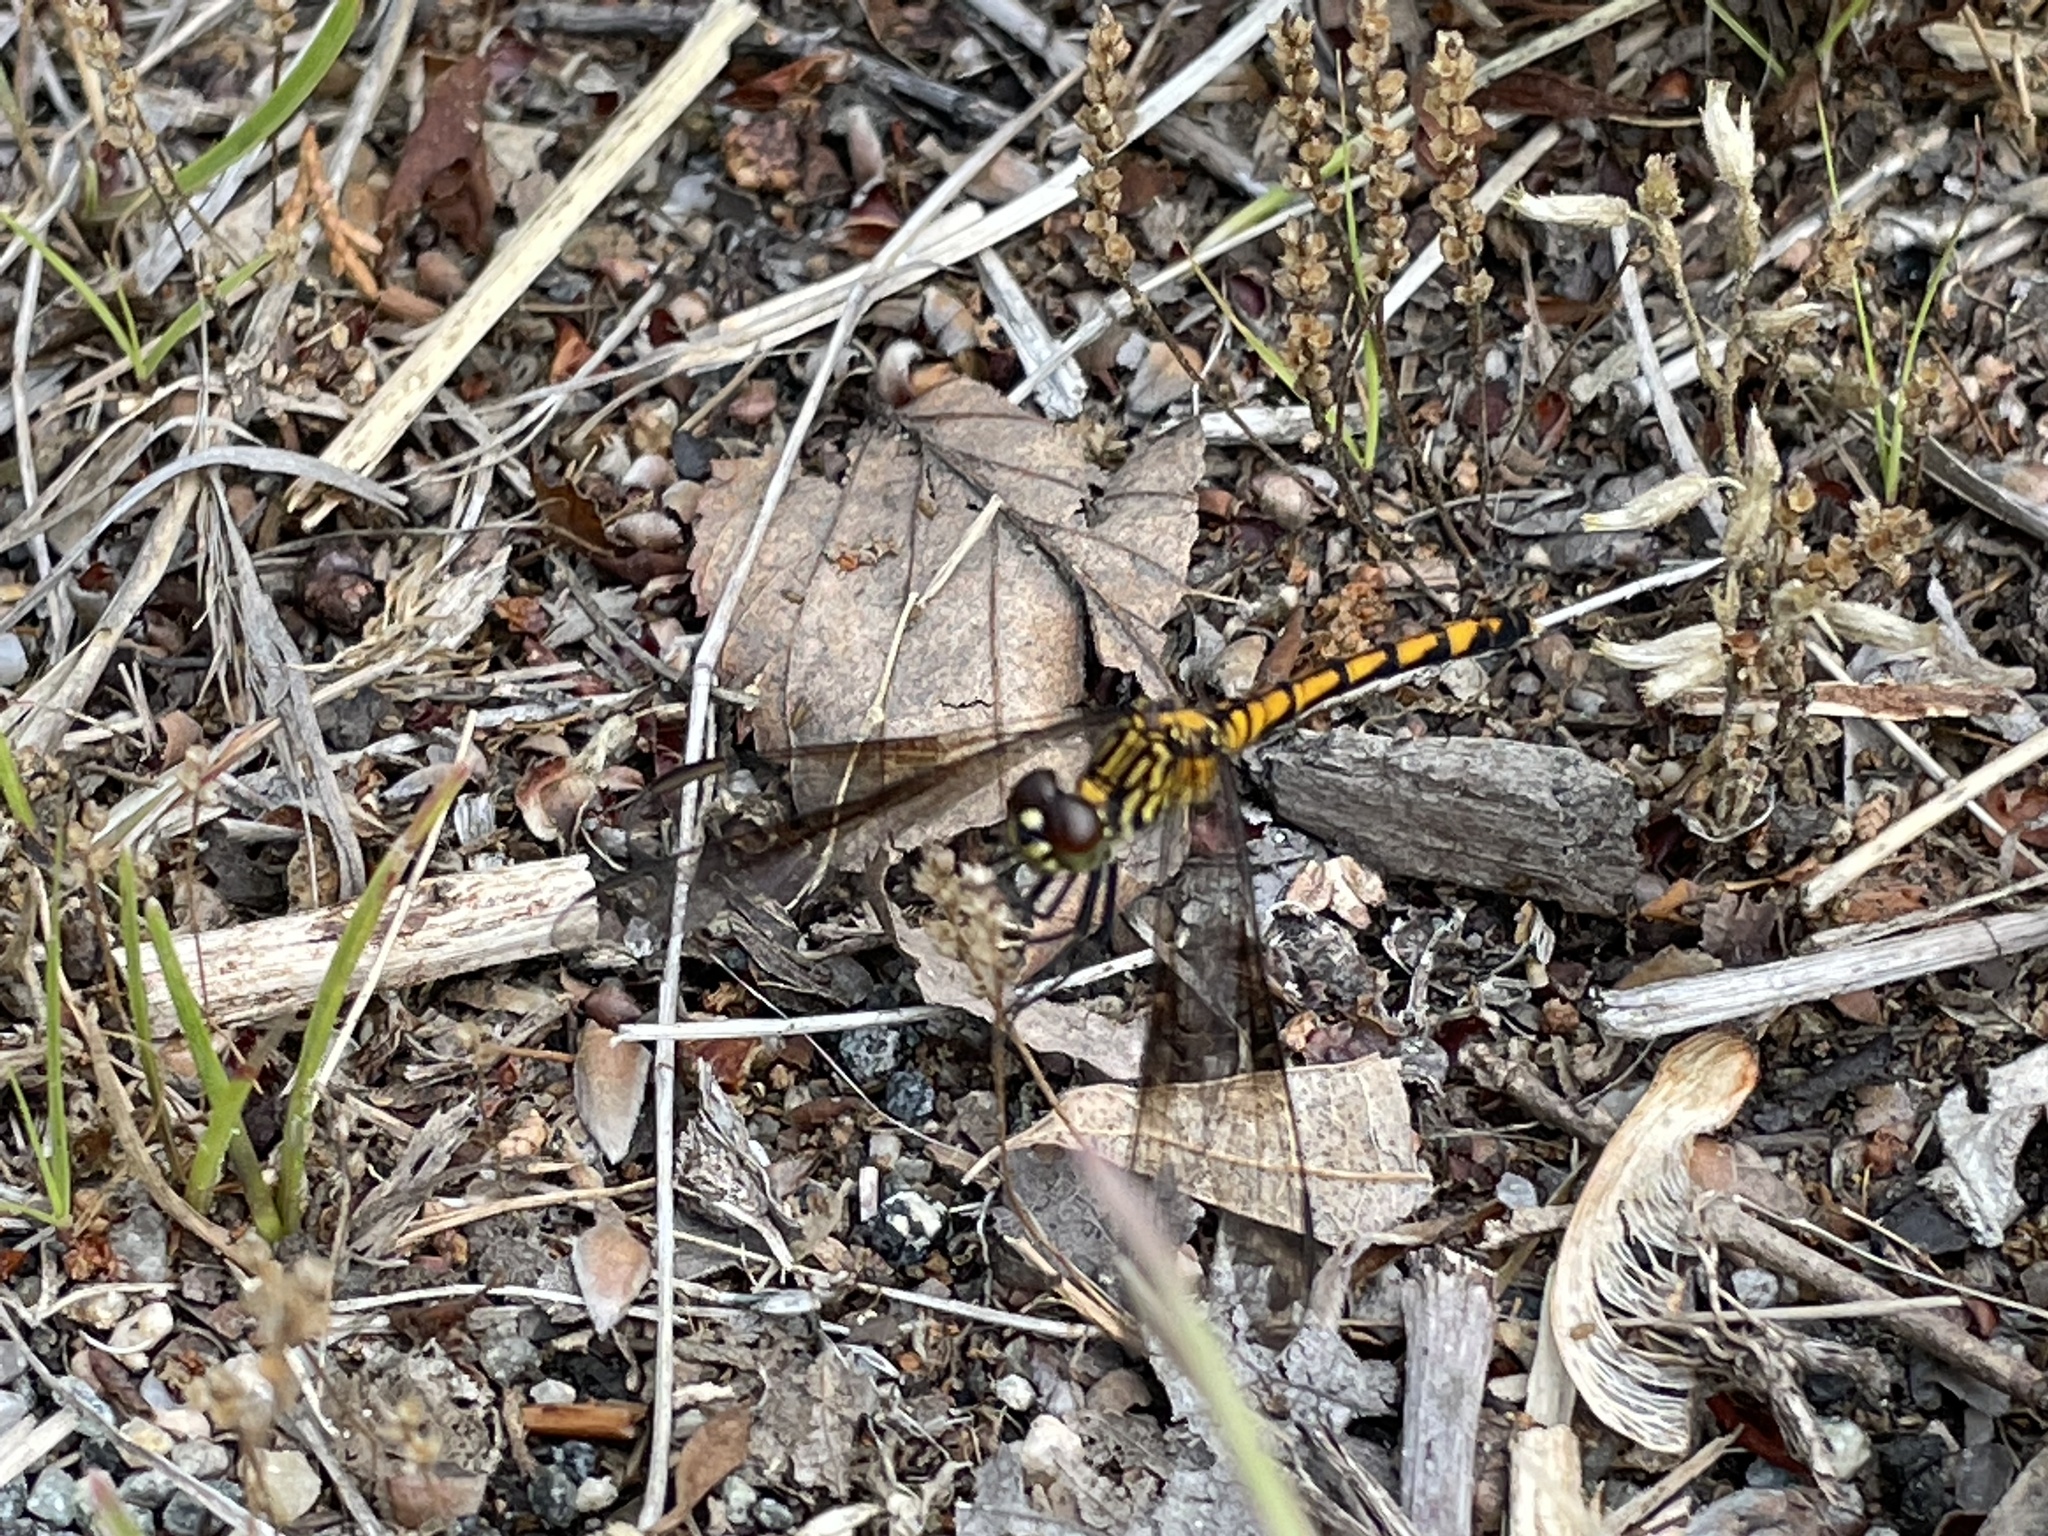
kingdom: Animalia
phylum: Arthropoda
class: Insecta
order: Odonata
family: Libellulidae
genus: Erythrodiplax
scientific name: Erythrodiplax berenice
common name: Seaside dragonlet
